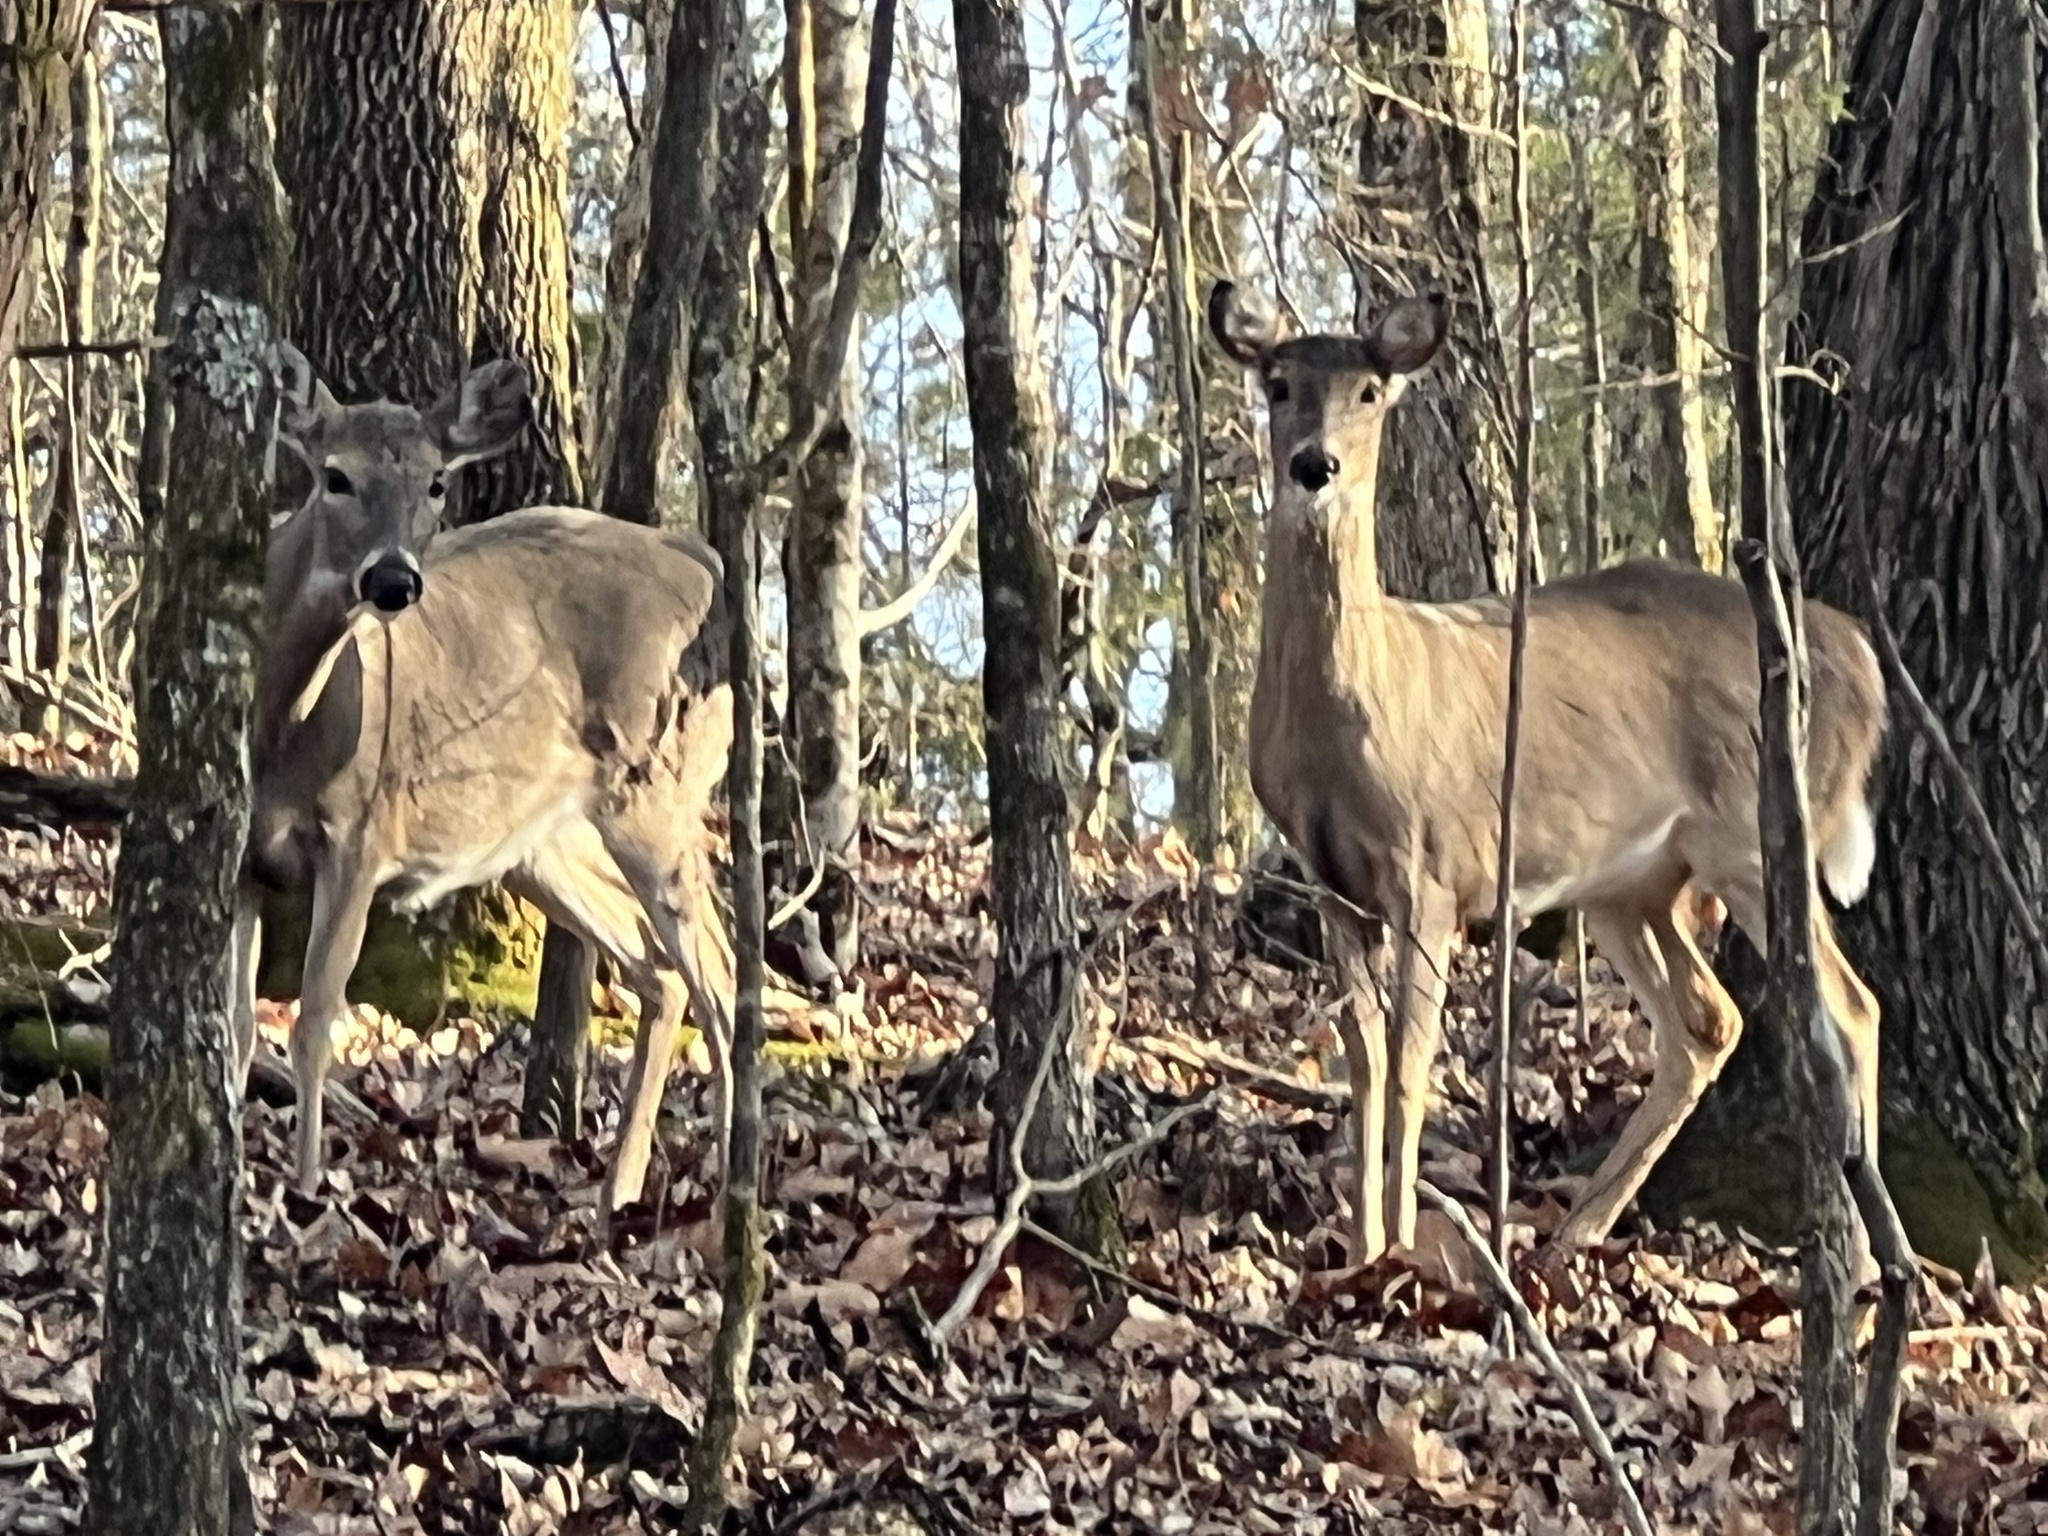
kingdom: Animalia
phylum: Chordata
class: Mammalia
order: Artiodactyla
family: Cervidae
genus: Odocoileus
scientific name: Odocoileus virginianus
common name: White-tailed deer
